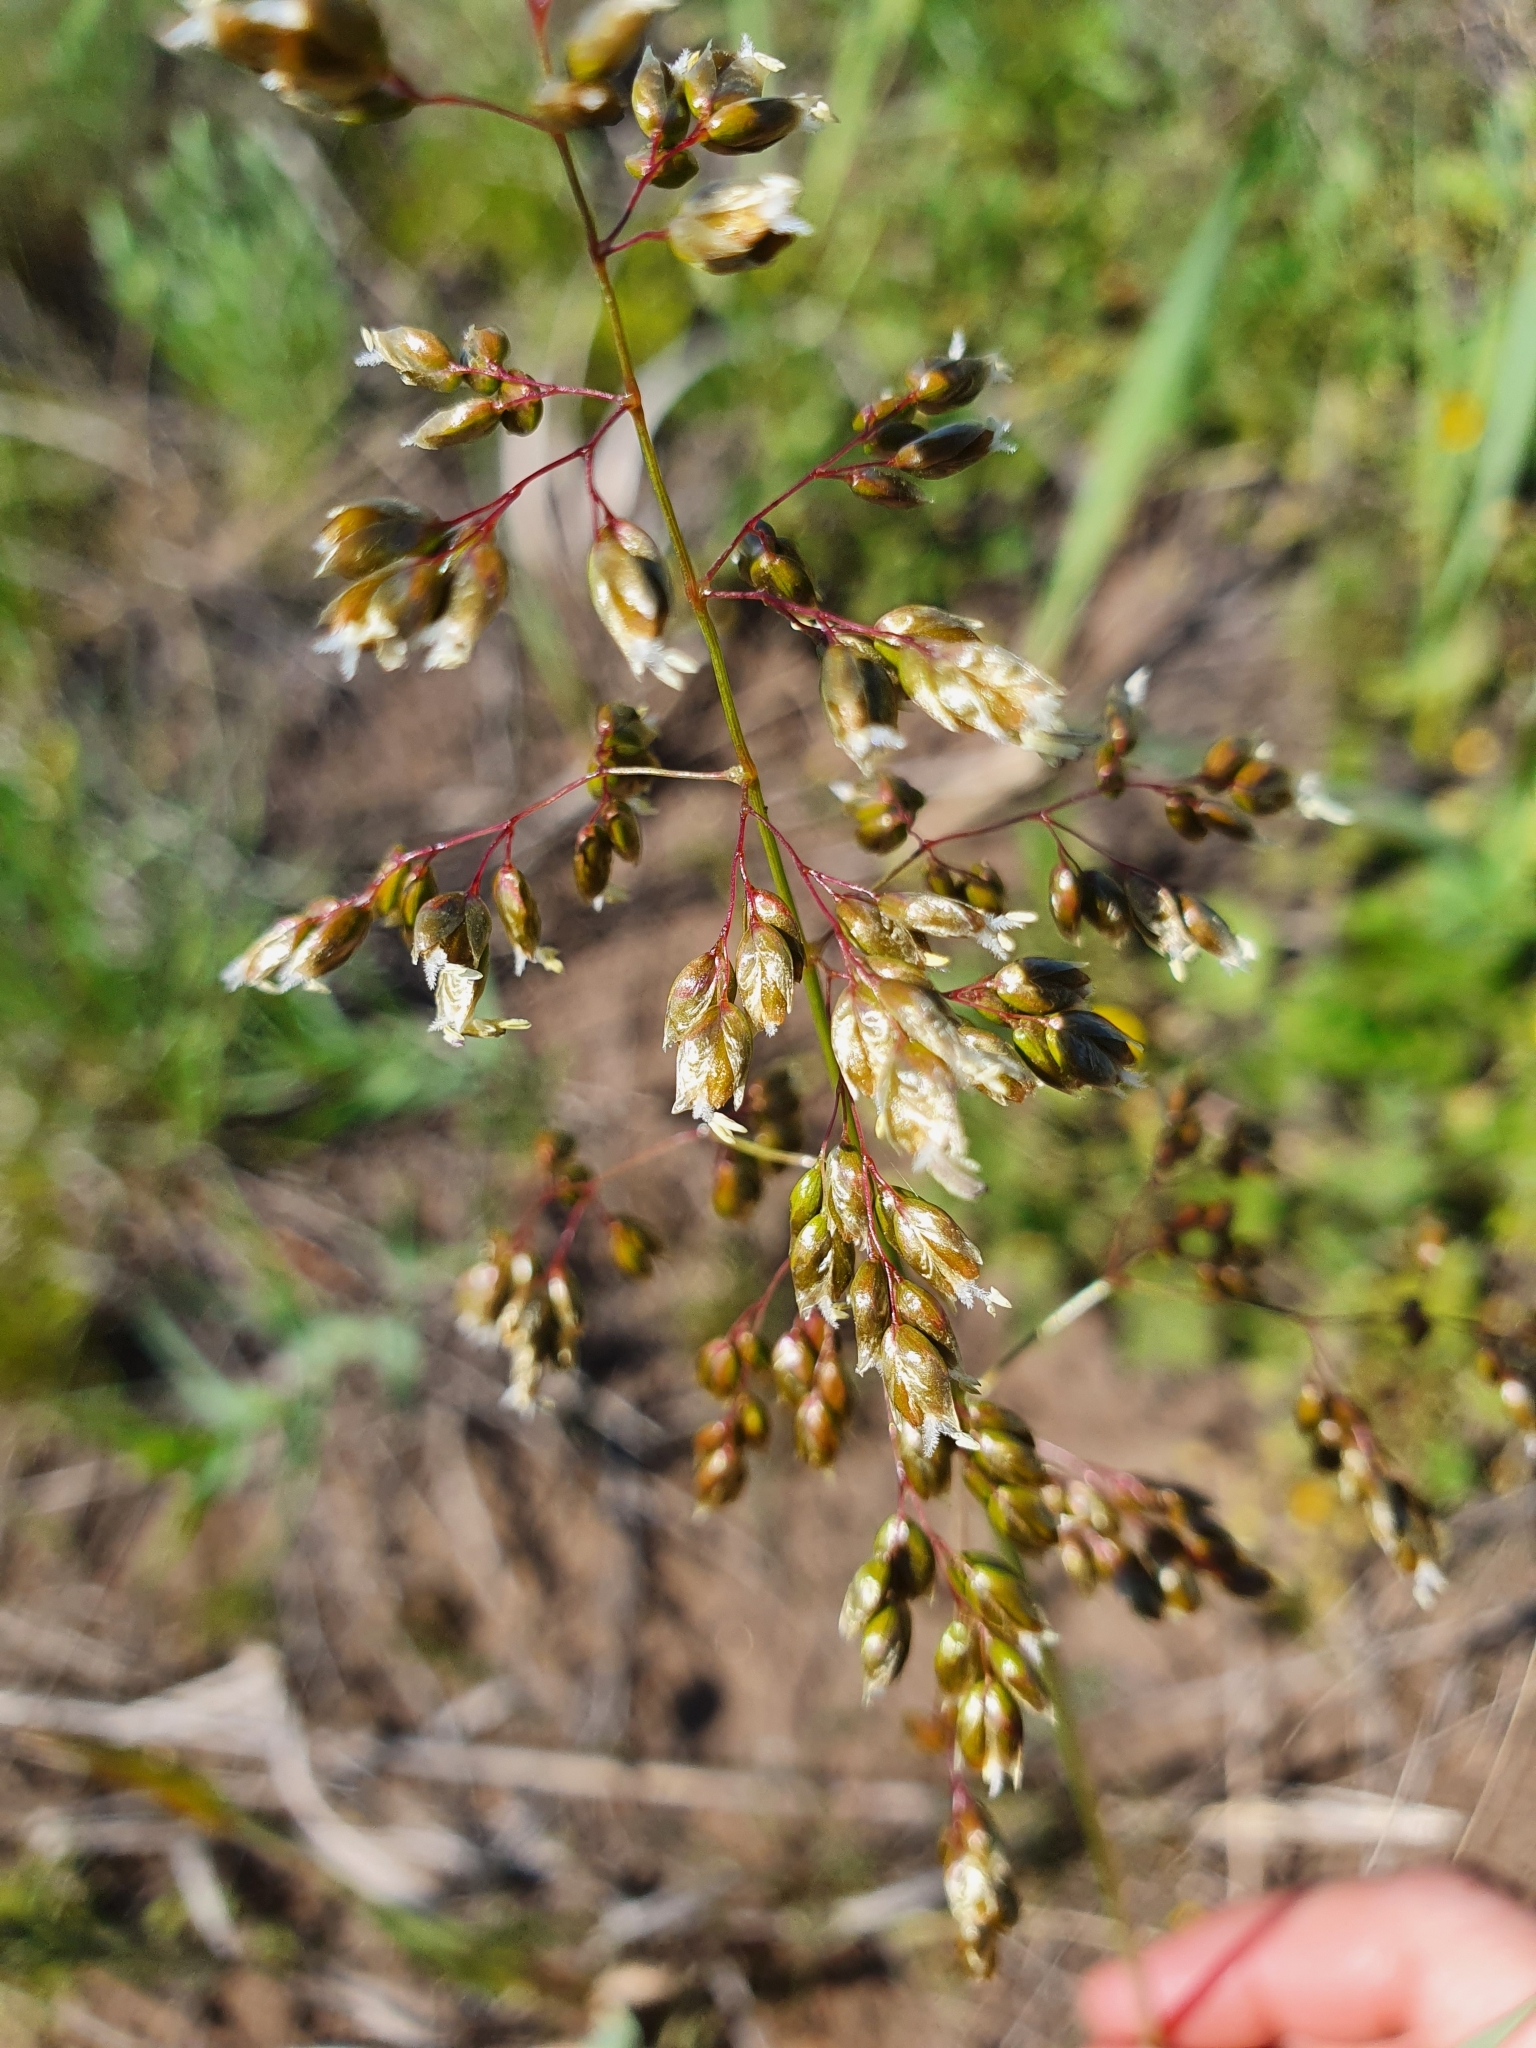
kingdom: Plantae
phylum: Tracheophyta
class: Liliopsida
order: Poales
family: Poaceae
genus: Anthoxanthum
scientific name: Anthoxanthum nitens
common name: Holy grass
